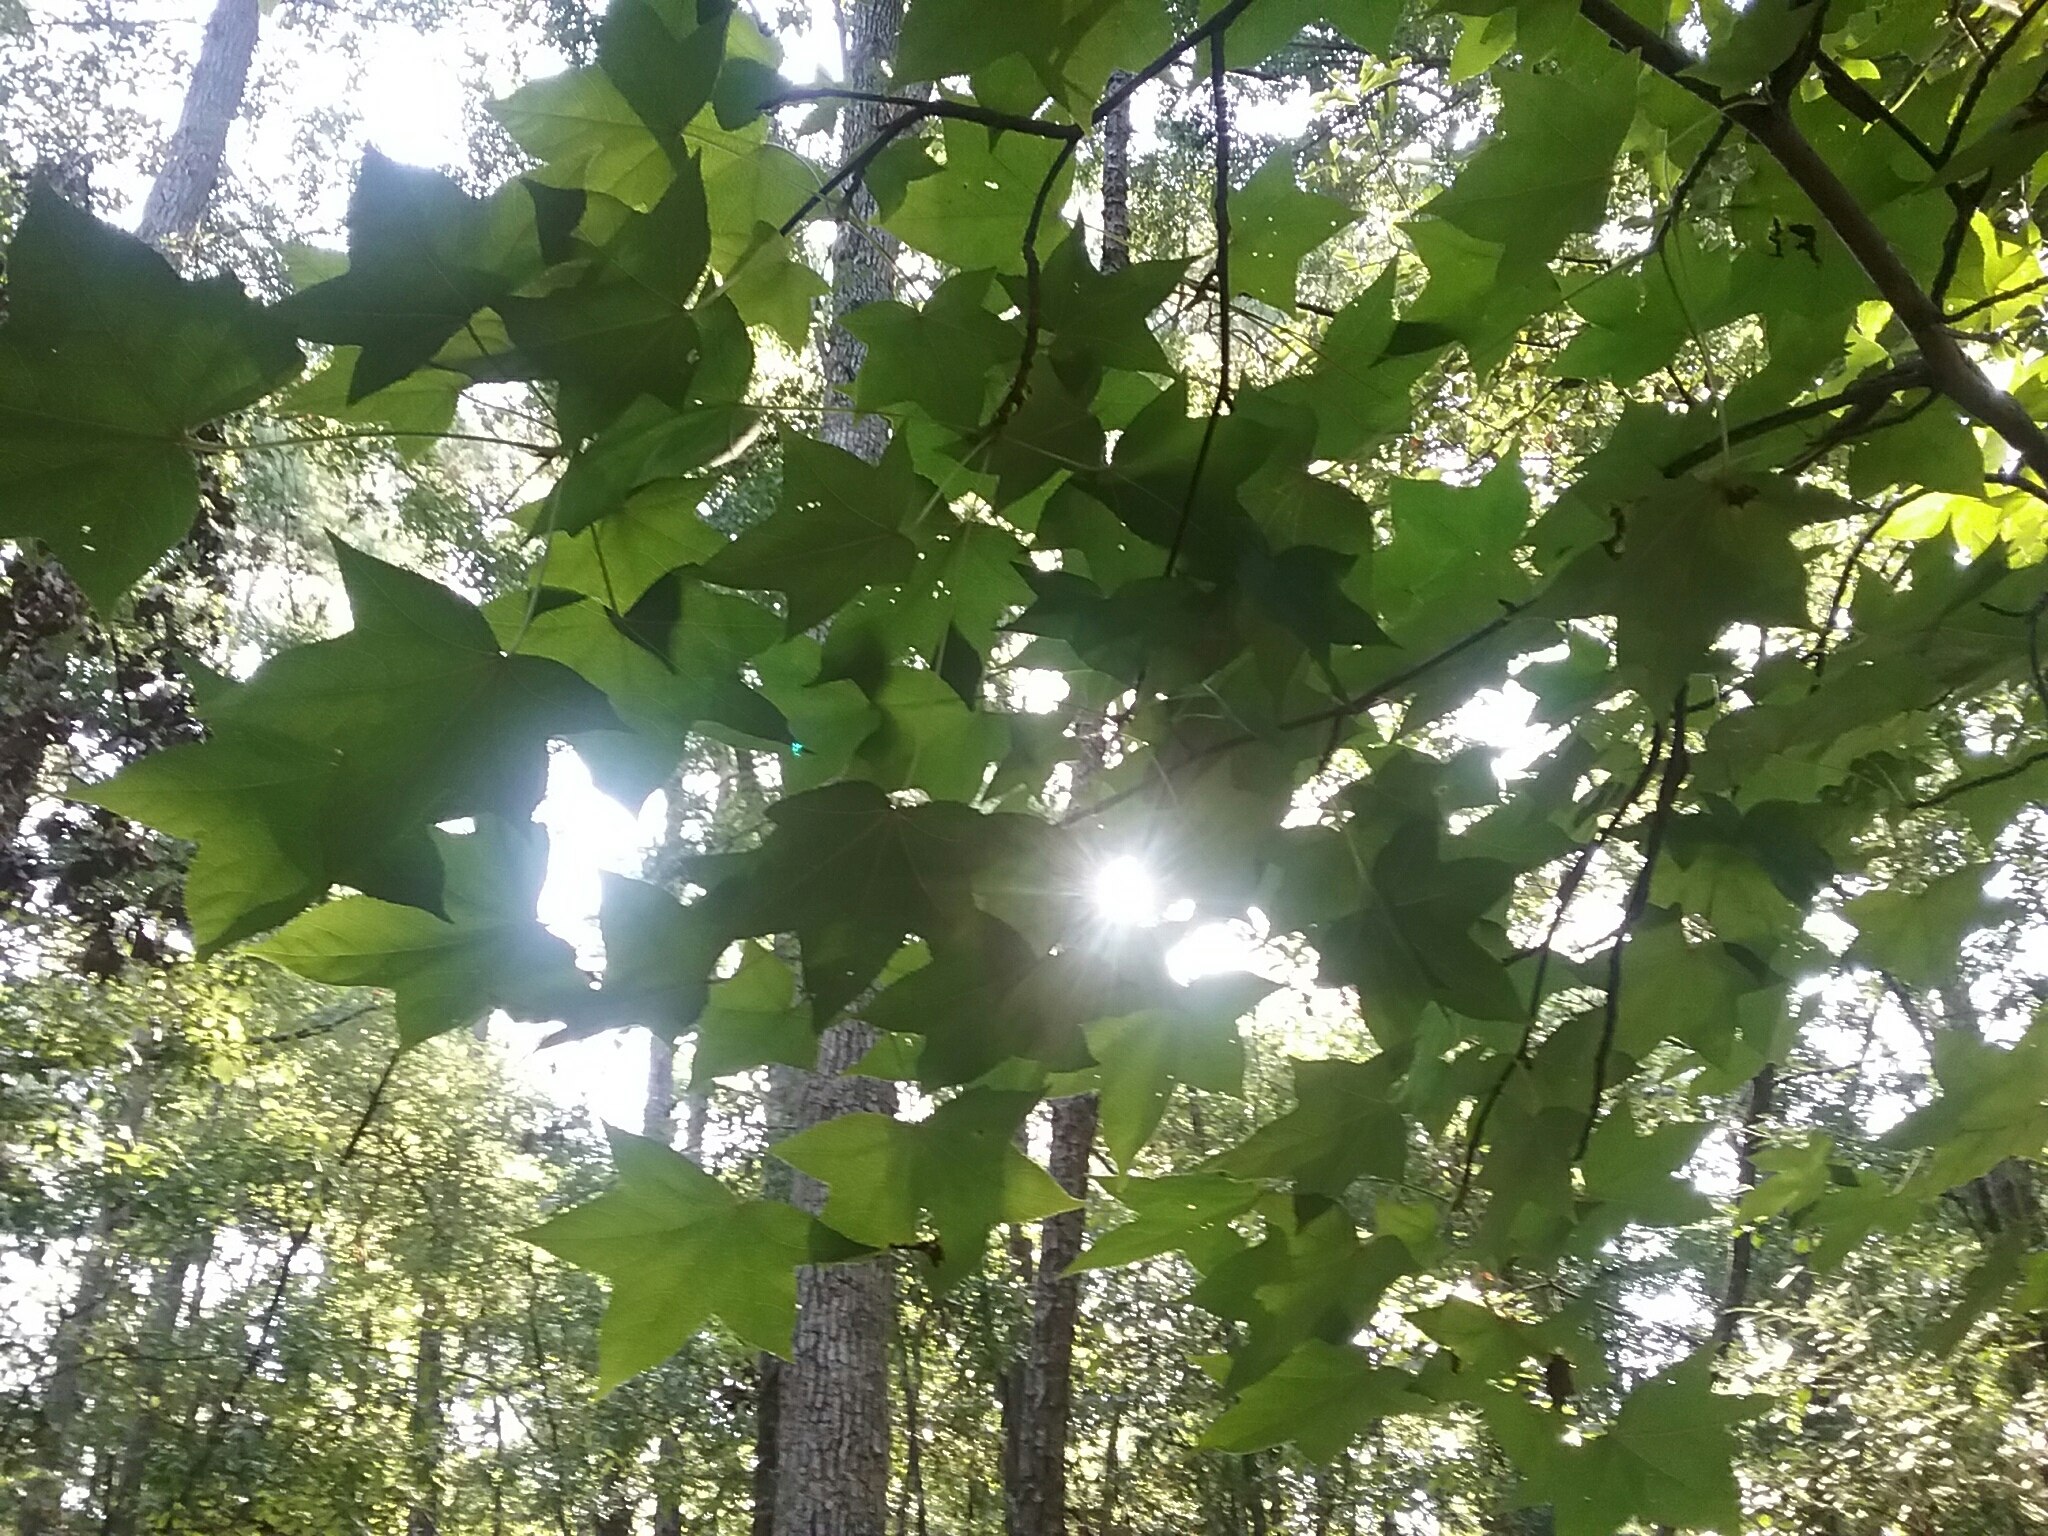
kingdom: Plantae
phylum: Tracheophyta
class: Magnoliopsida
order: Saxifragales
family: Altingiaceae
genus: Liquidambar
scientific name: Liquidambar styraciflua
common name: Sweet gum
